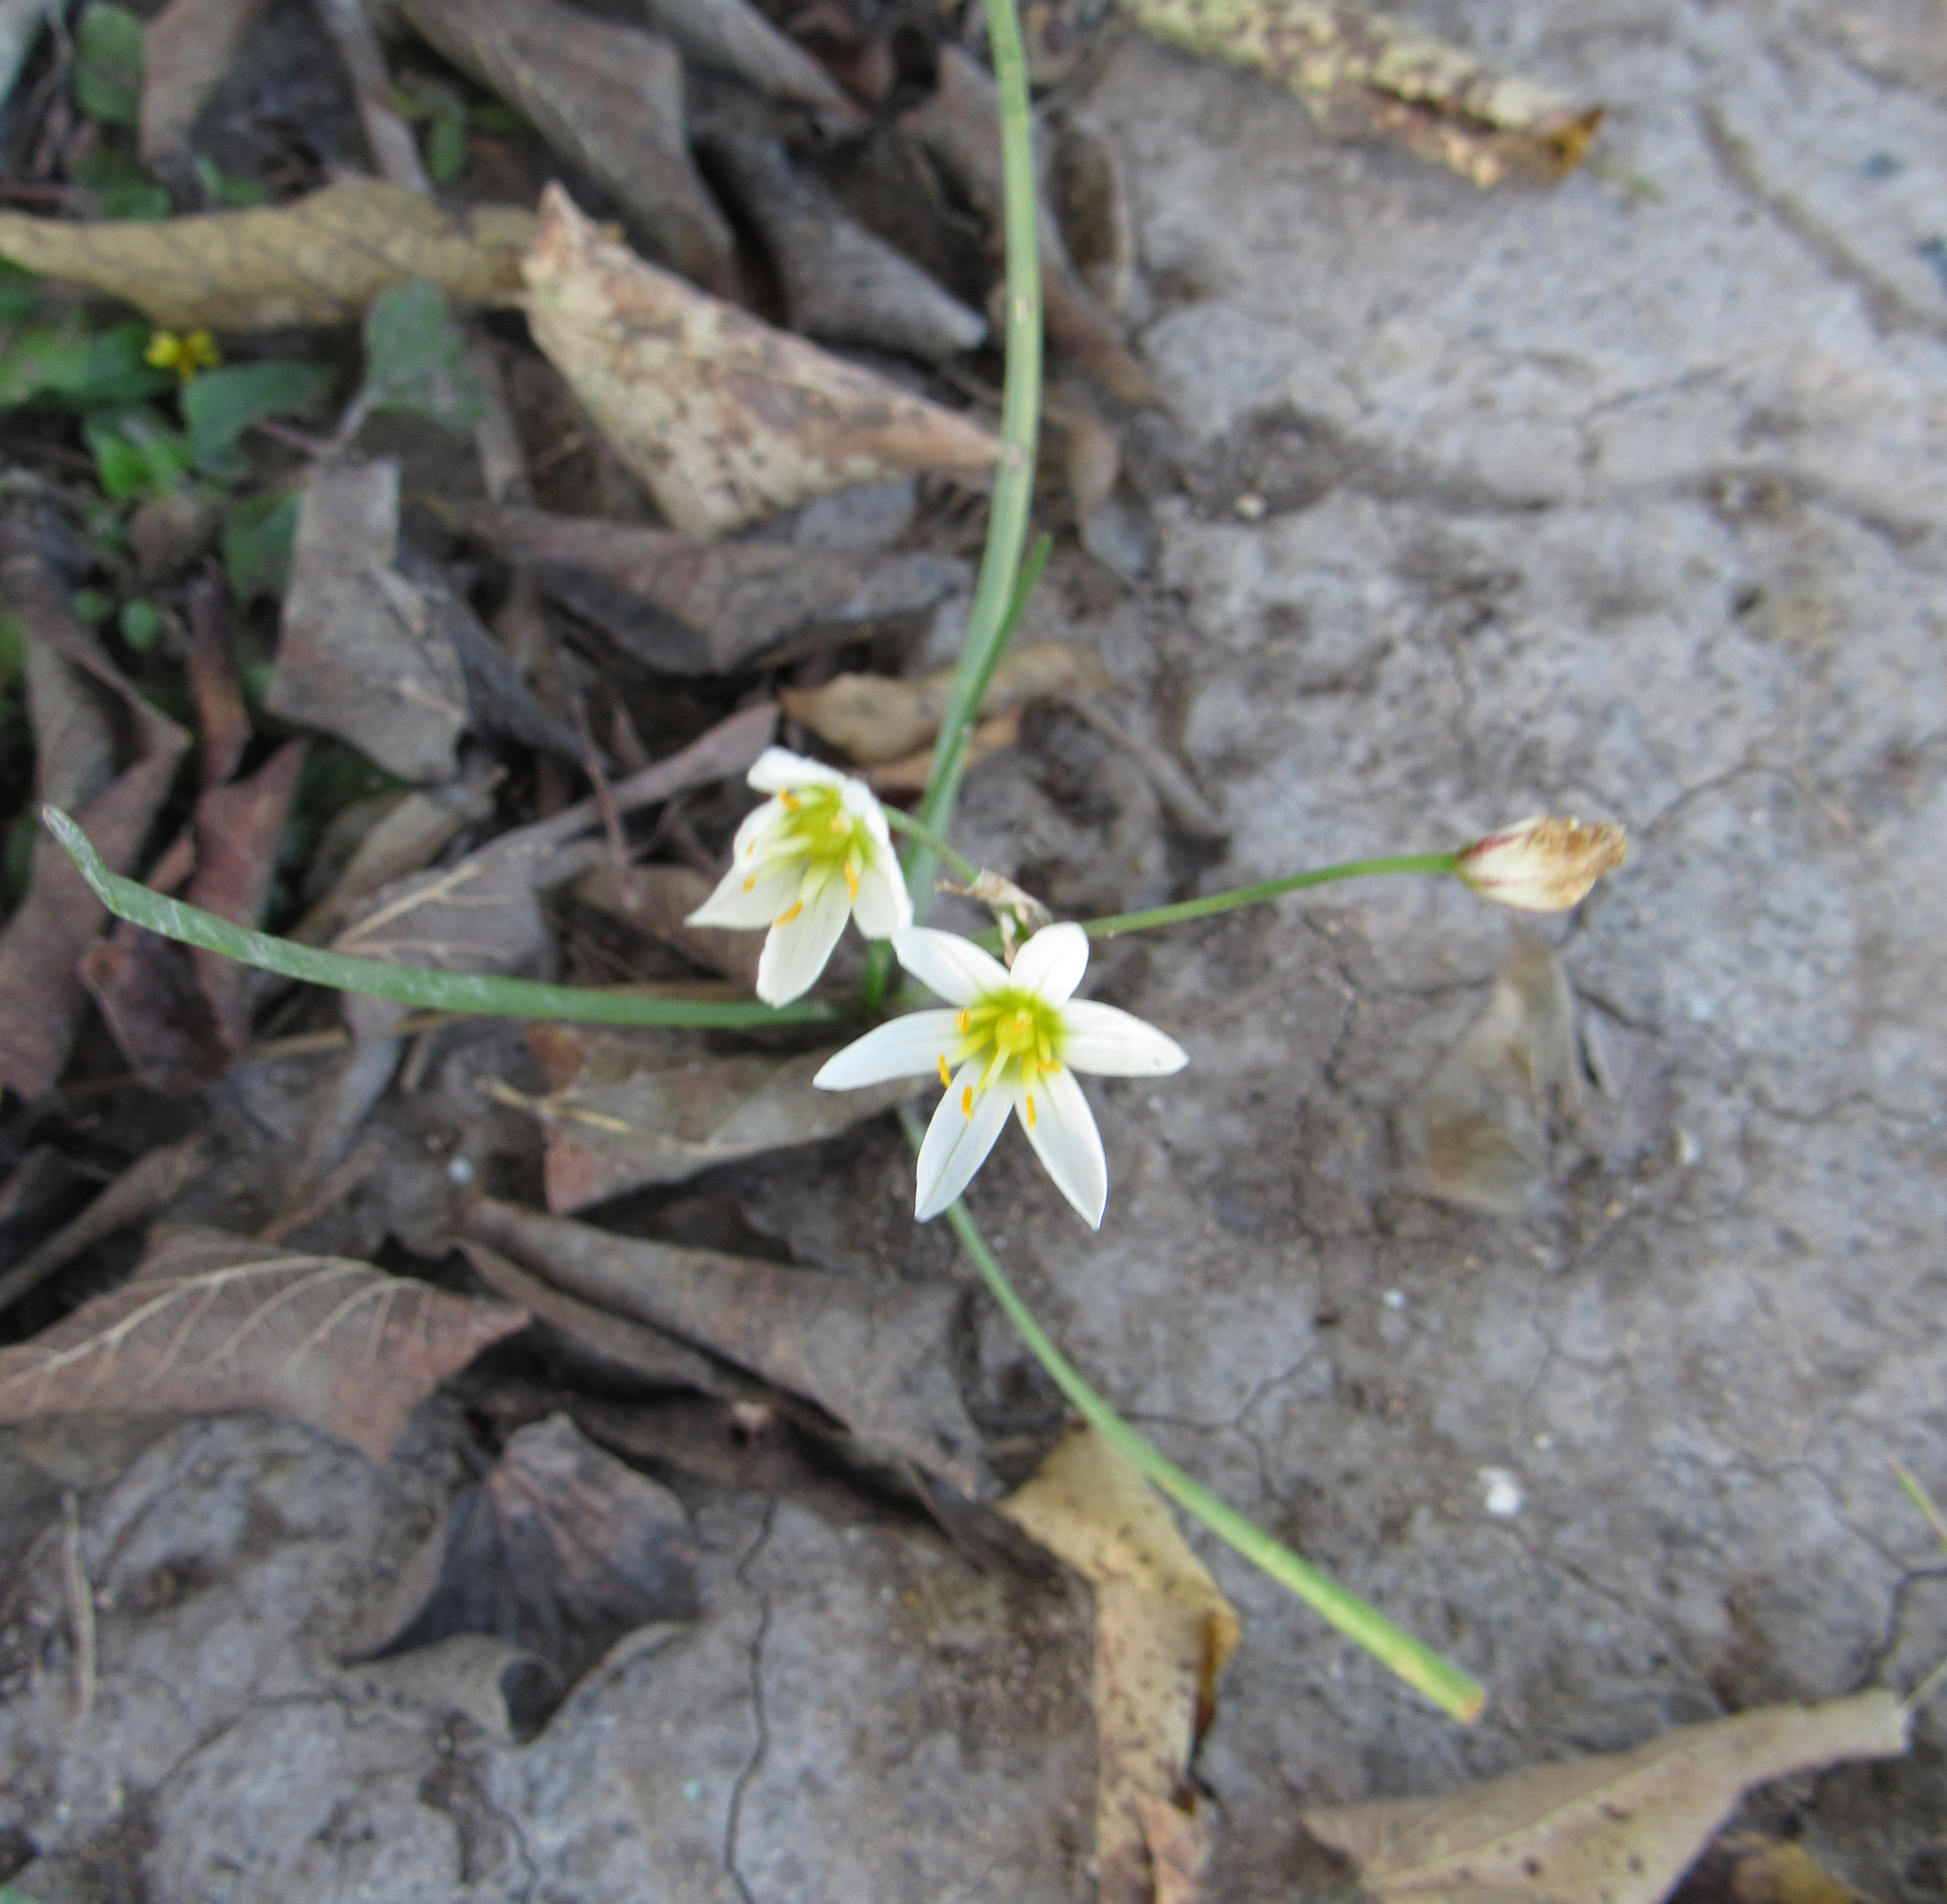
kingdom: Plantae
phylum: Tracheophyta
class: Liliopsida
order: Asparagales
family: Amaryllidaceae
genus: Nothoscordum
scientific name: Nothoscordum bivalve
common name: Crow-poison
